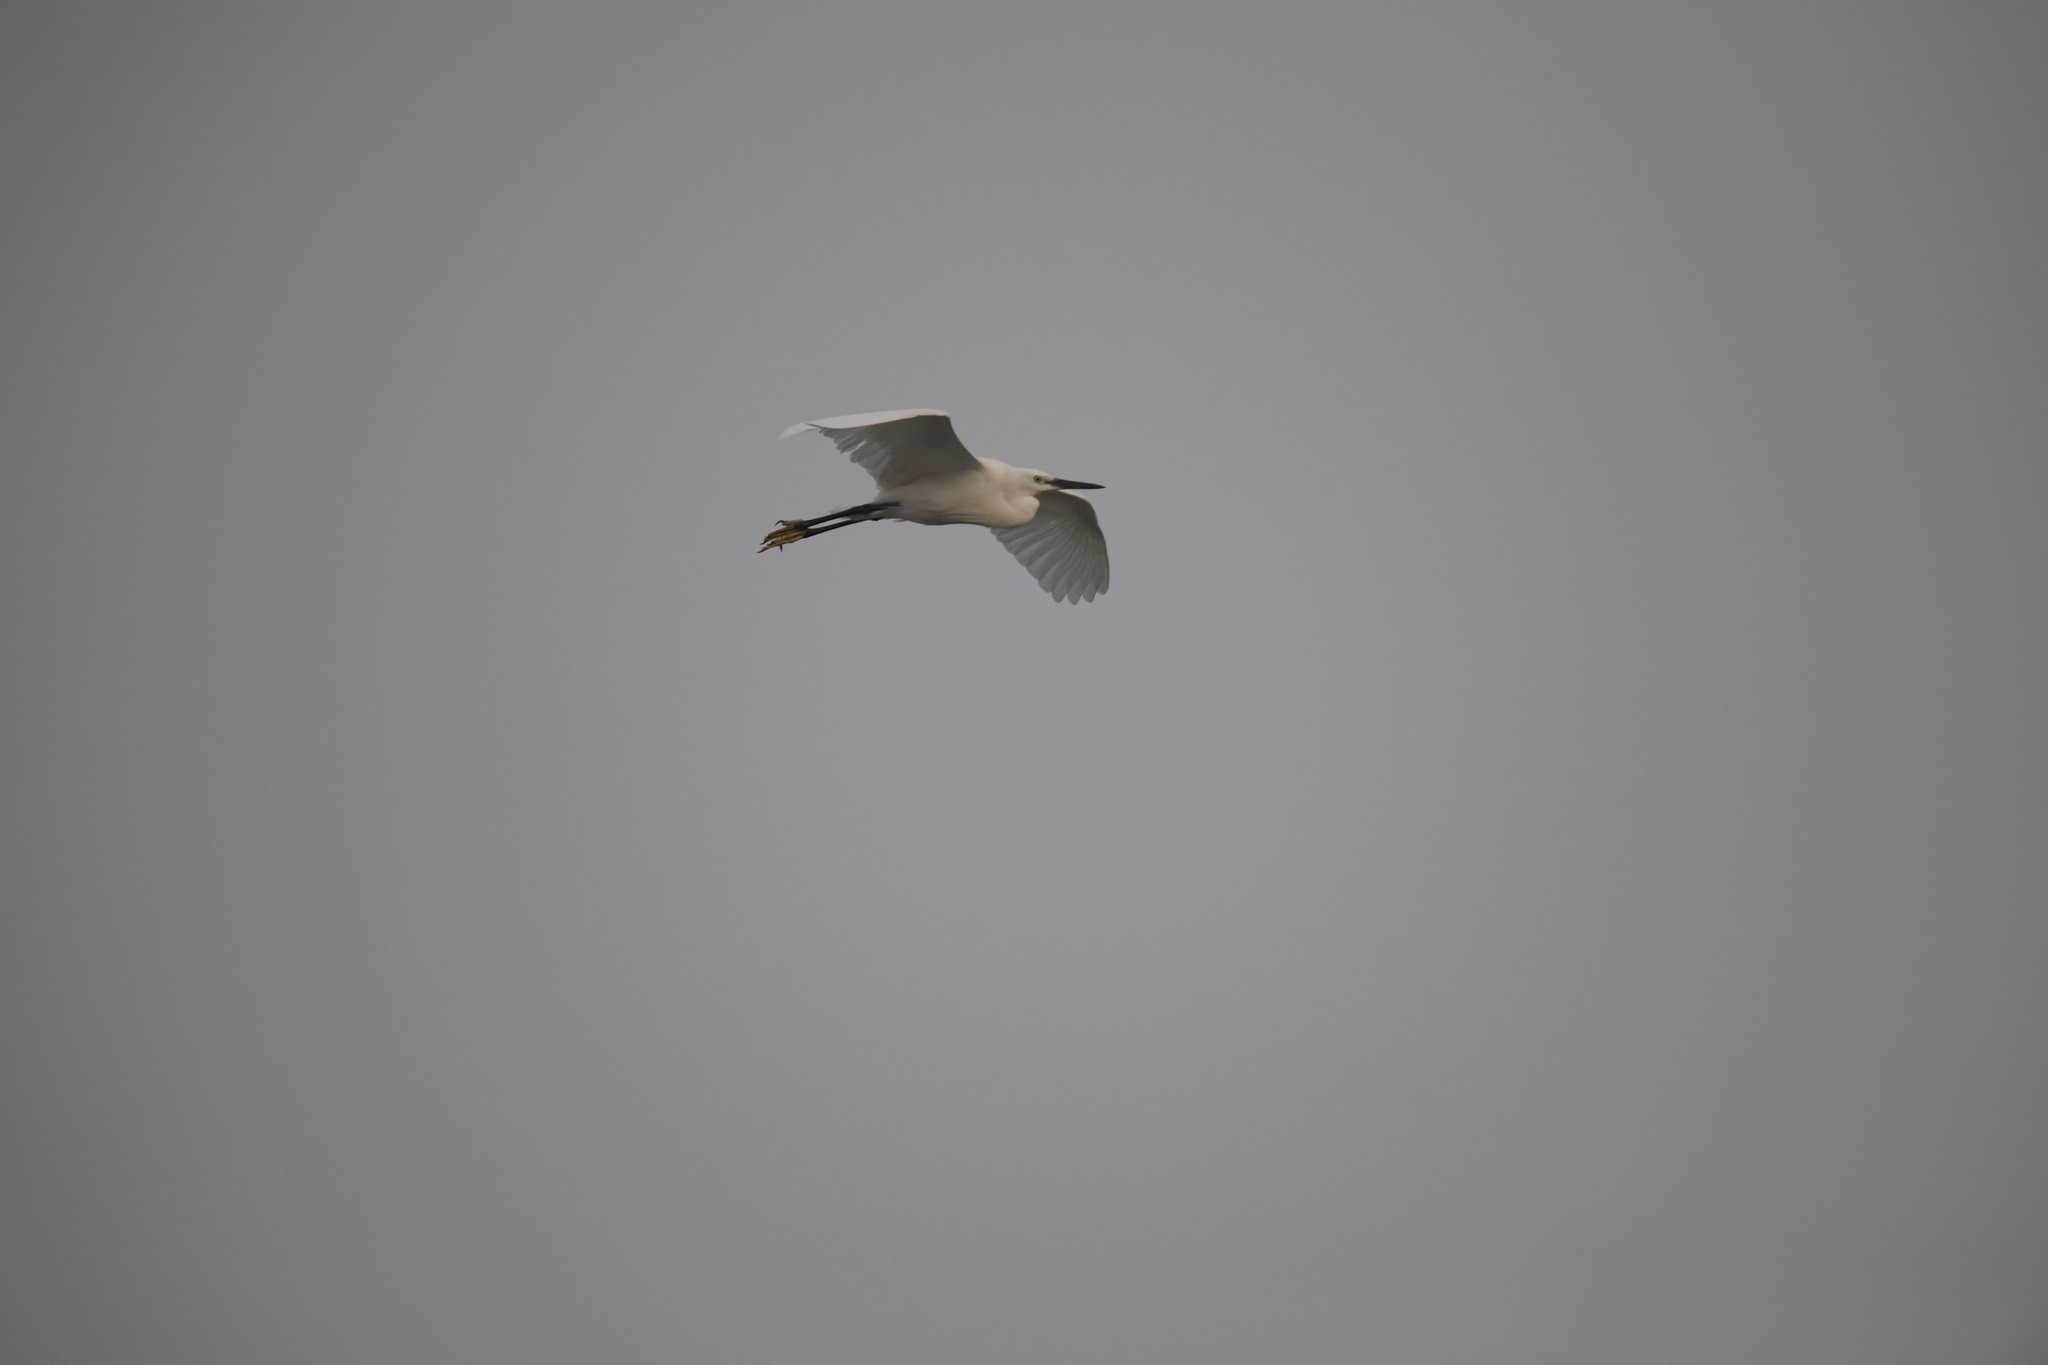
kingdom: Animalia
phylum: Chordata
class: Aves
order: Pelecaniformes
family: Ardeidae
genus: Egretta
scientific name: Egretta garzetta
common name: Little egret
